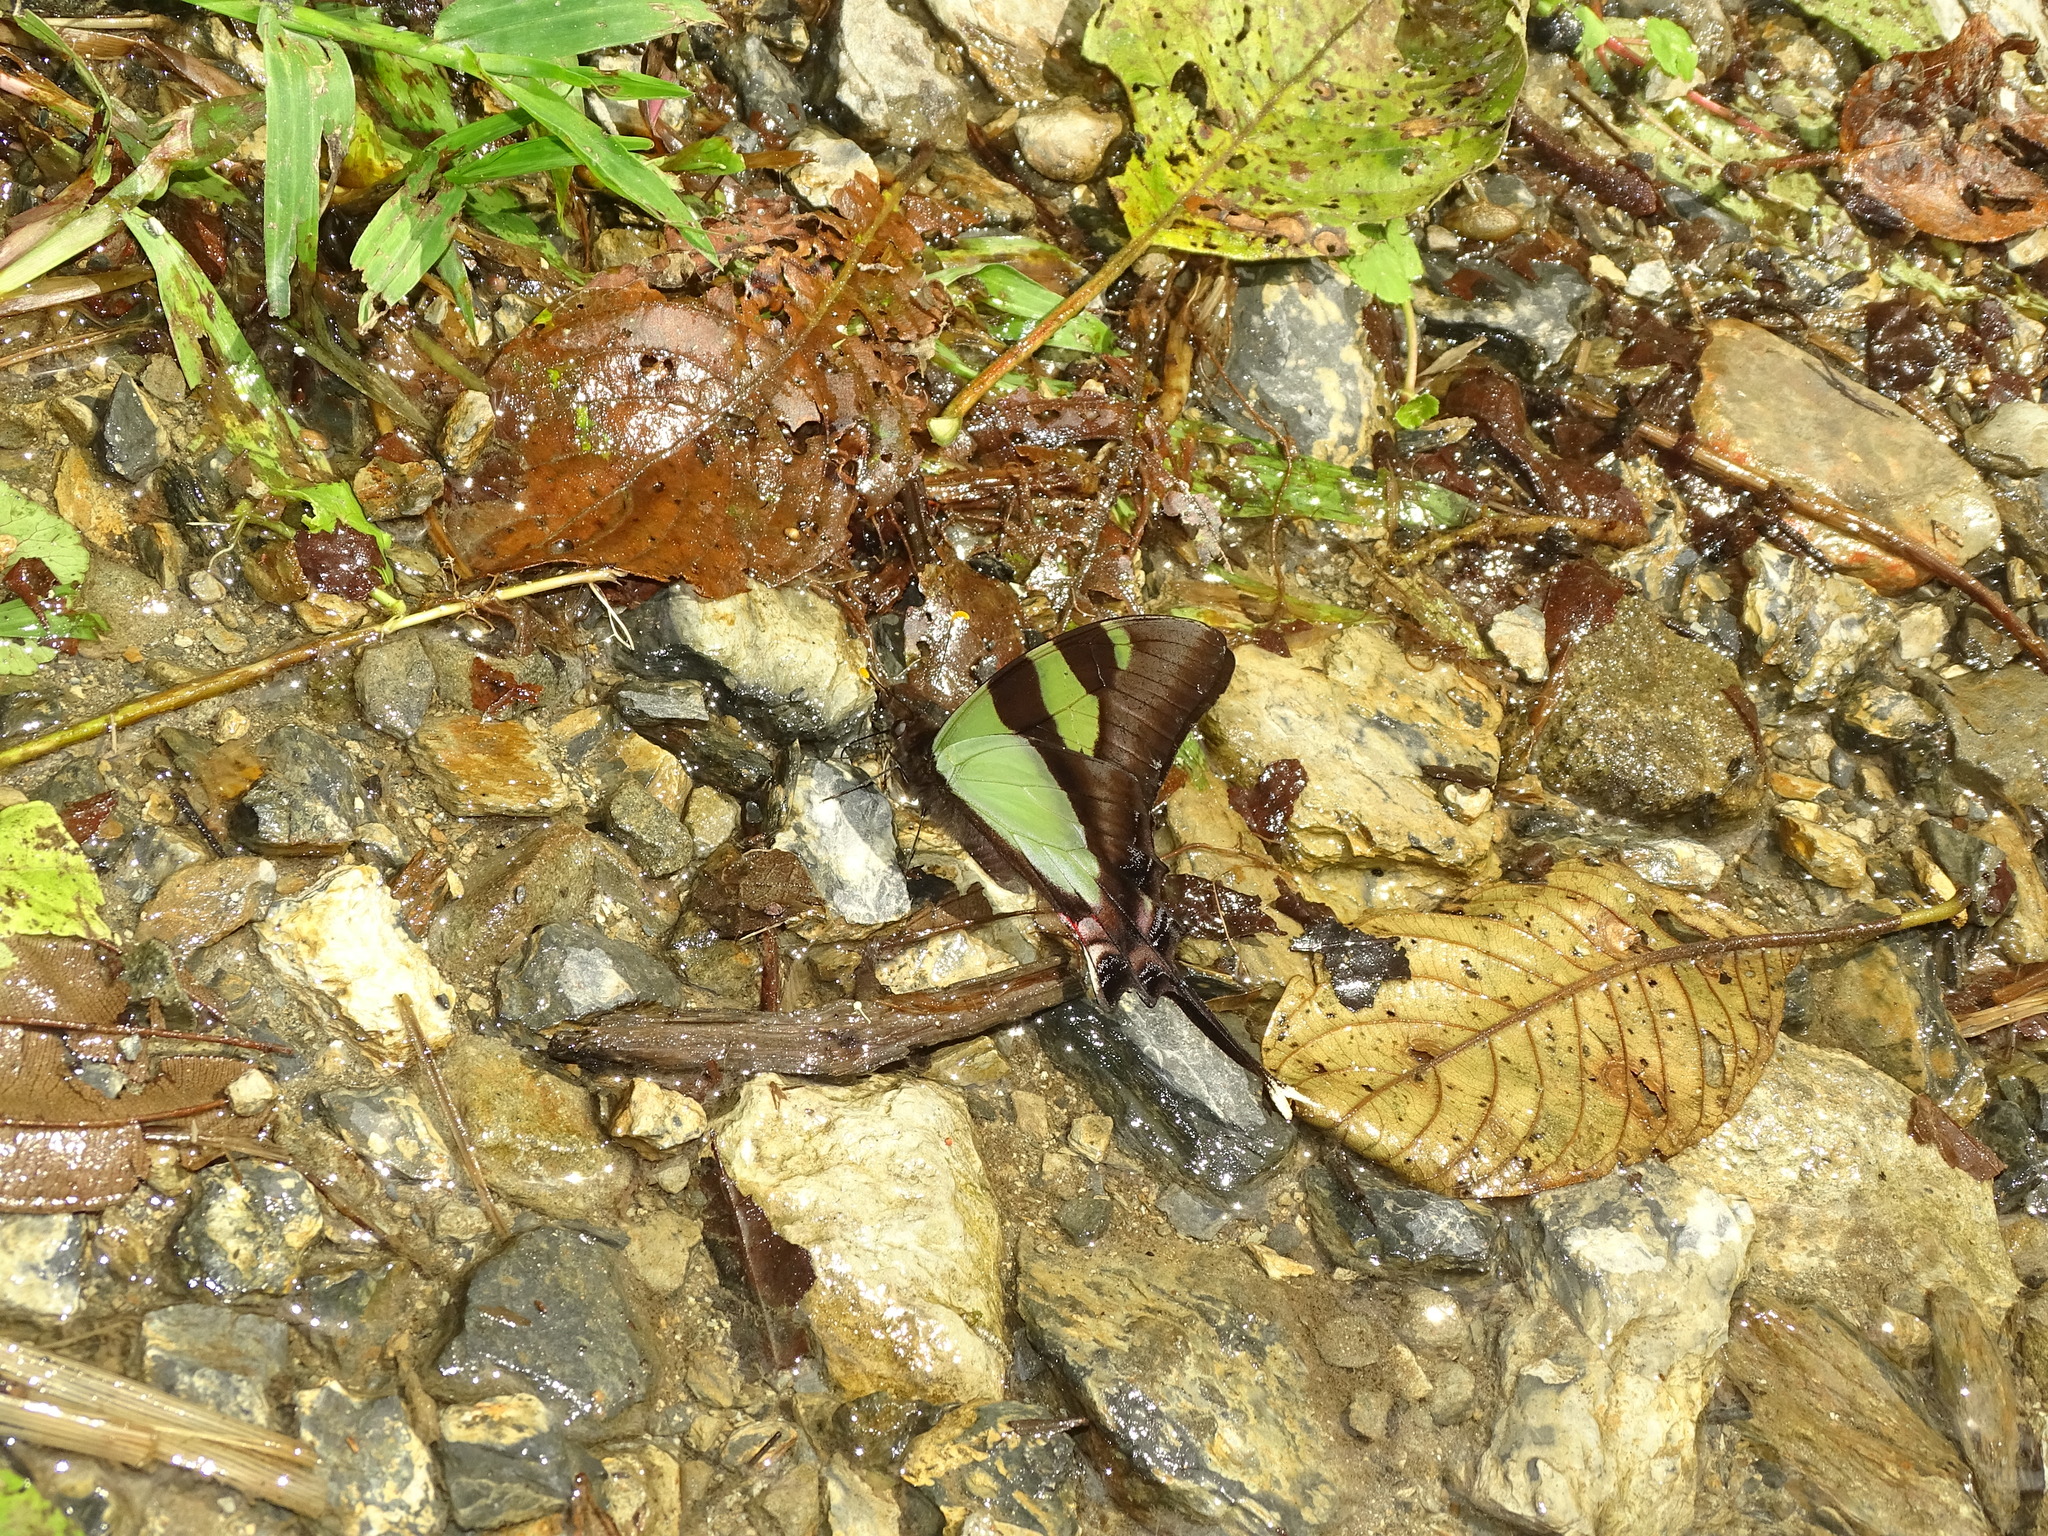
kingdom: Animalia
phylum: Arthropoda
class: Insecta
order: Lepidoptera
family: Papilionidae
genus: Eurytides
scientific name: Eurytides
